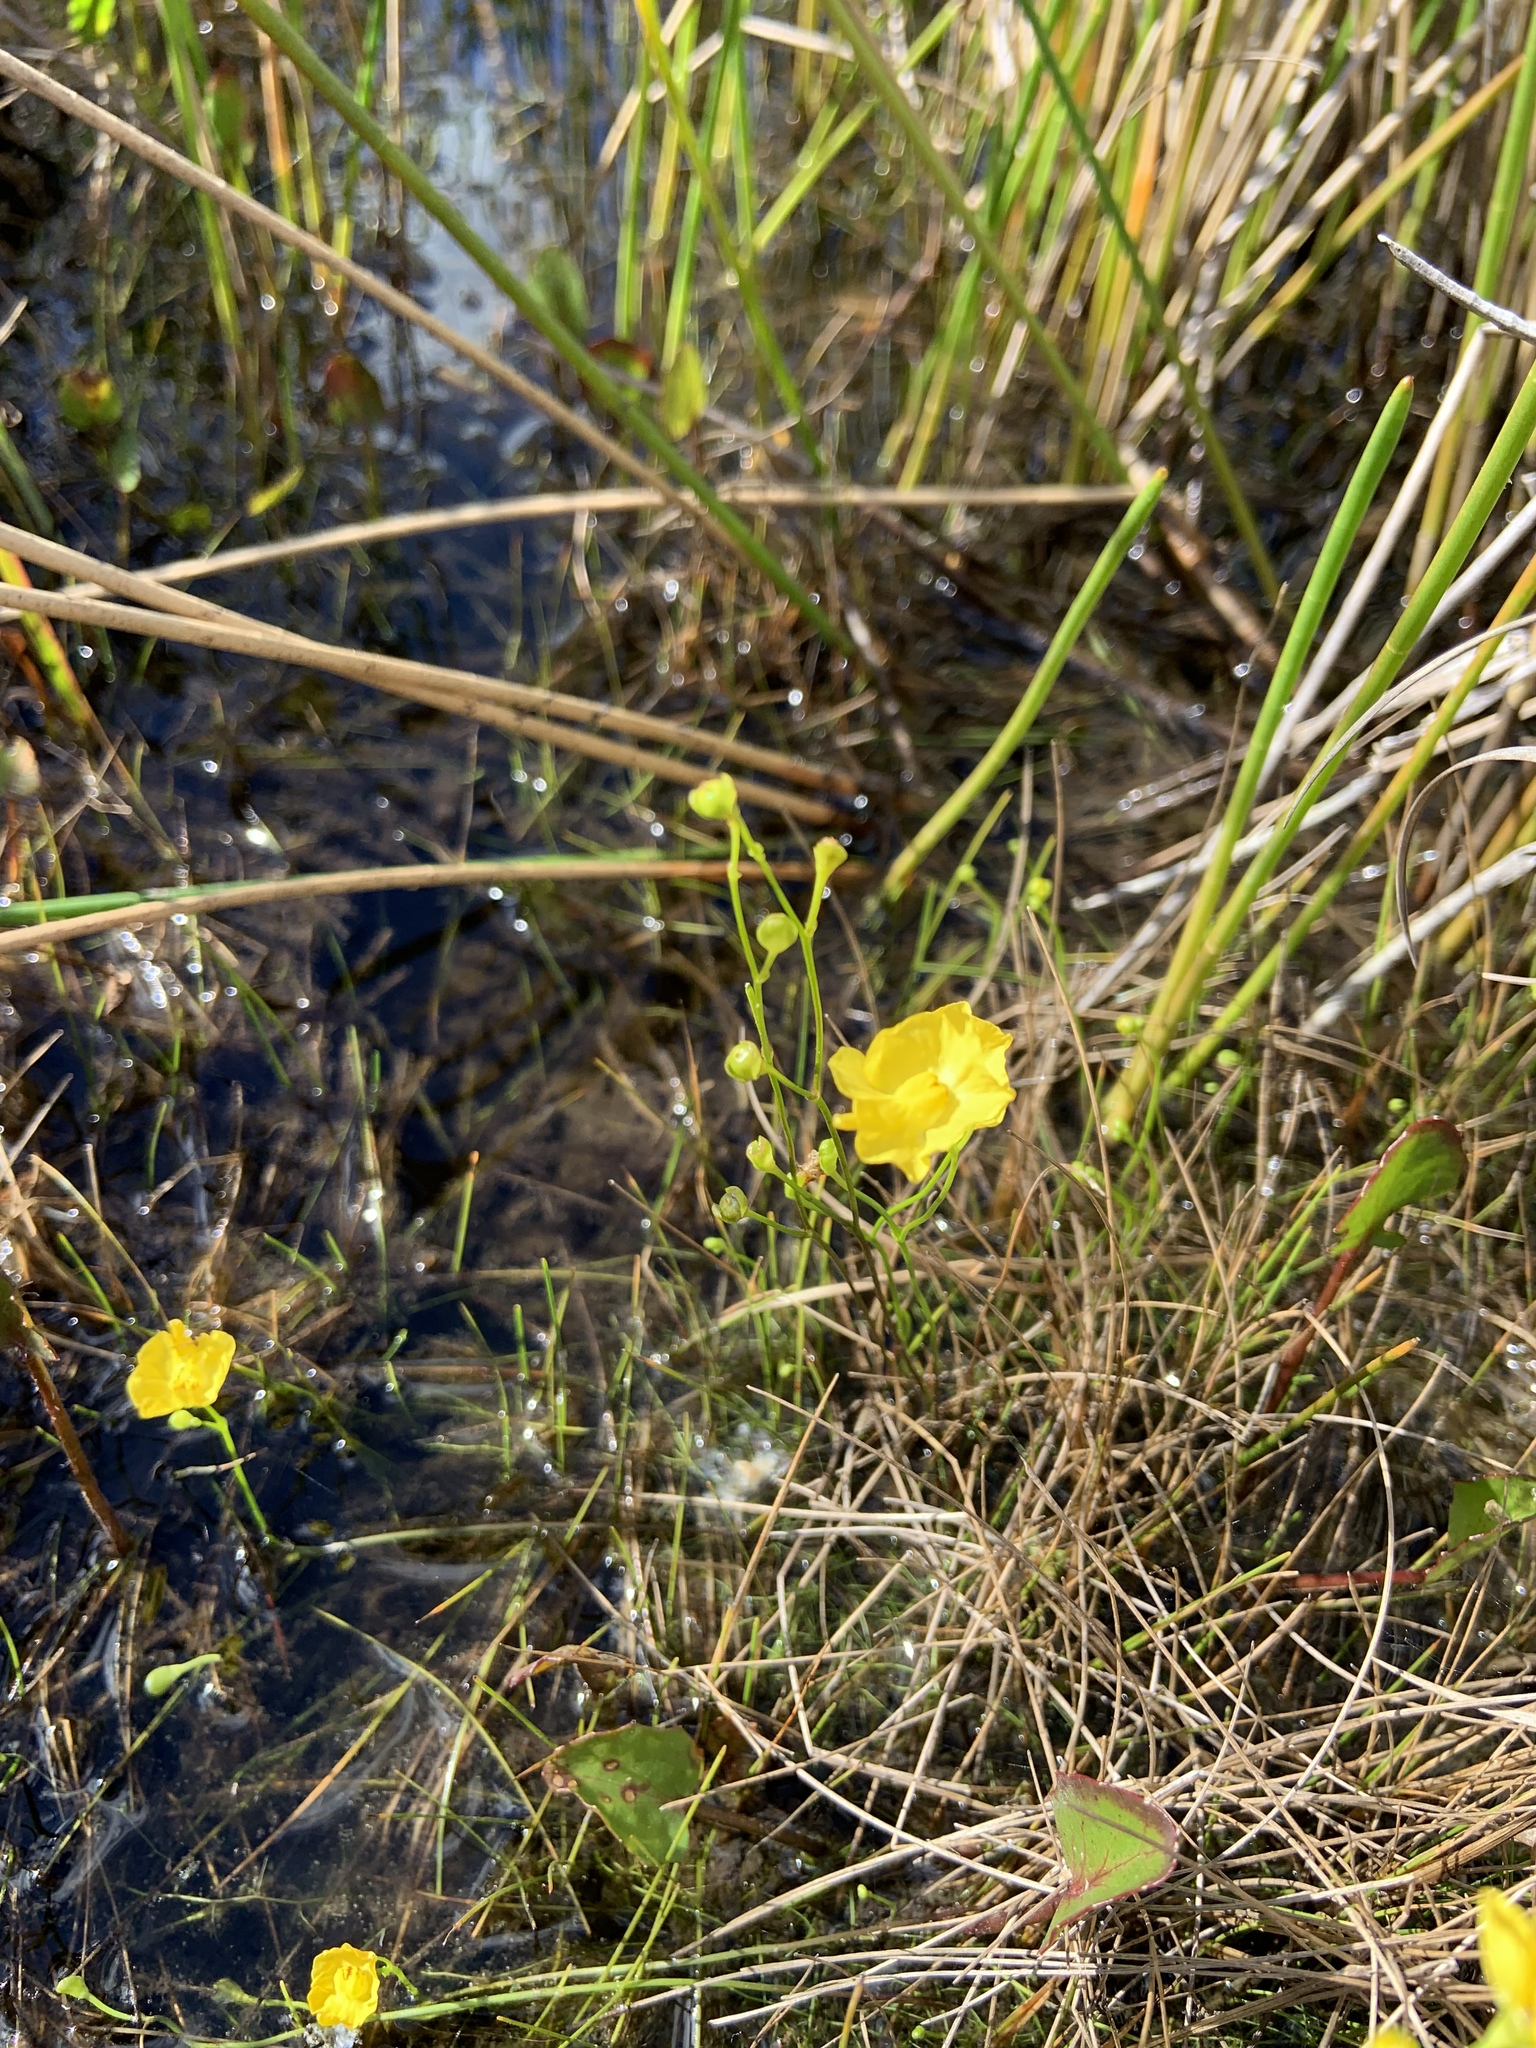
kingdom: Plantae
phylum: Tracheophyta
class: Magnoliopsida
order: Lamiales
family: Lentibulariaceae
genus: Utricularia
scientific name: Utricularia gibba
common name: Humped bladderwort
